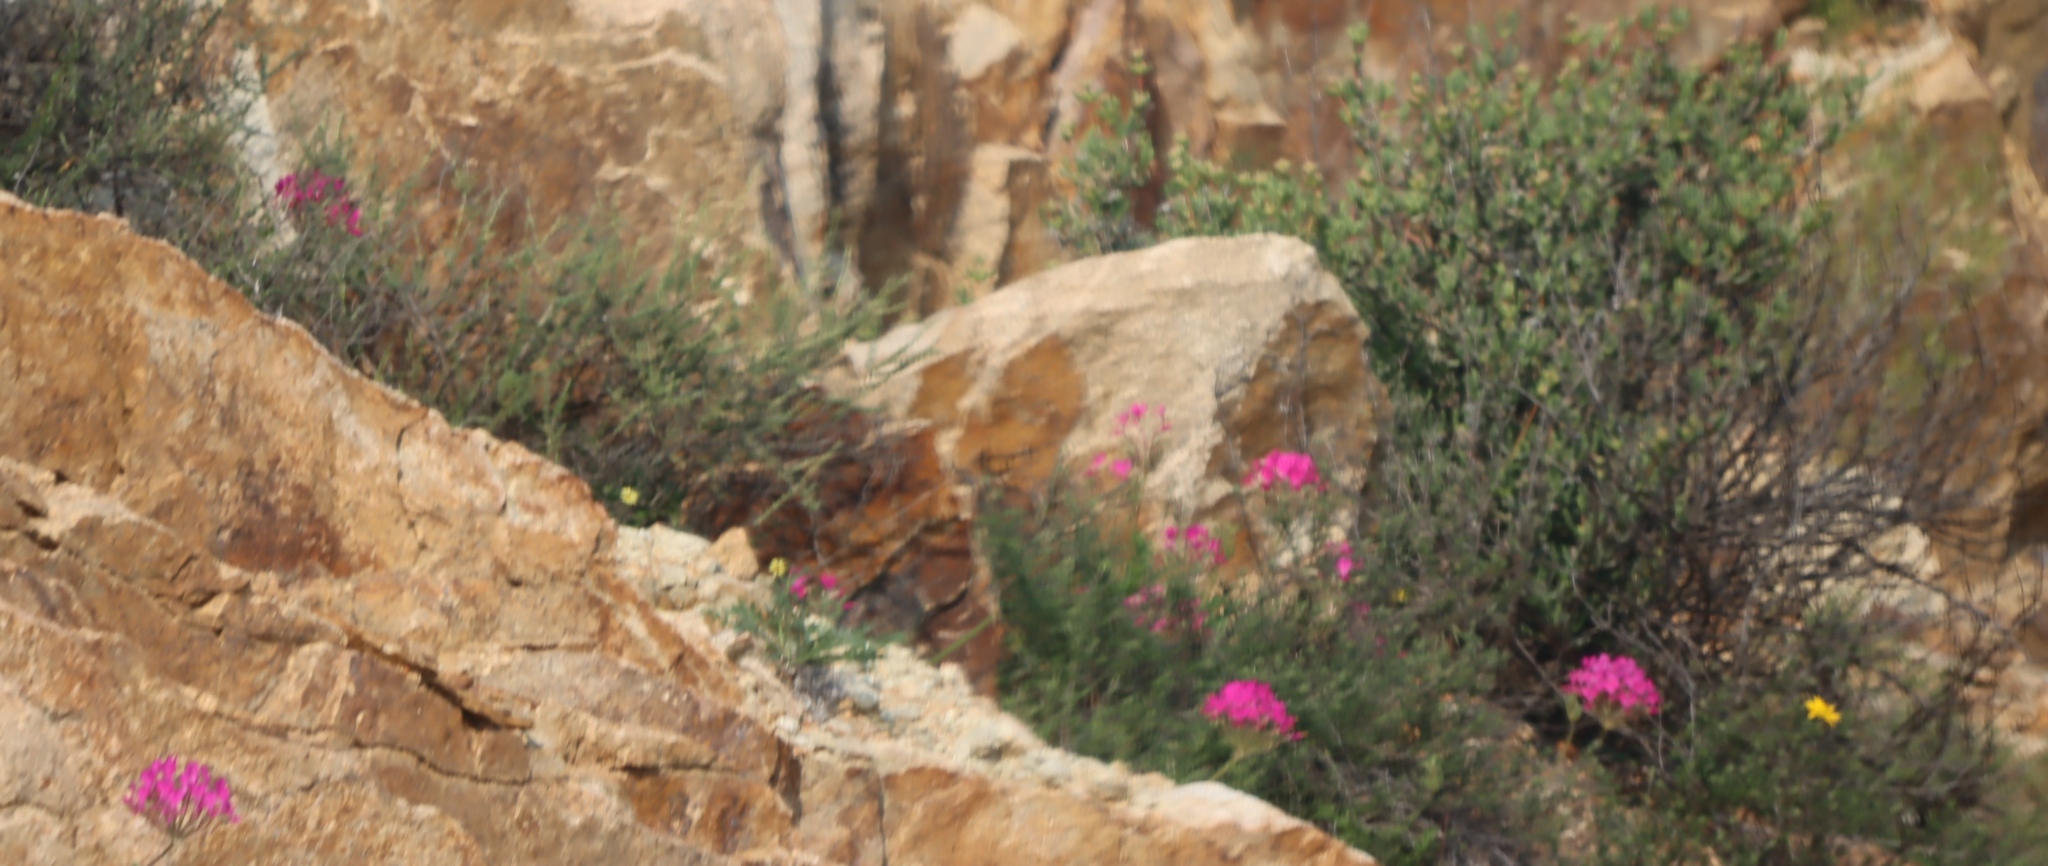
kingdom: Plantae
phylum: Tracheophyta
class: Magnoliopsida
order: Geraniales
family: Geraniaceae
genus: Pelargonium
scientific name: Pelargonium incrassatum
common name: Namaqualand beauty
